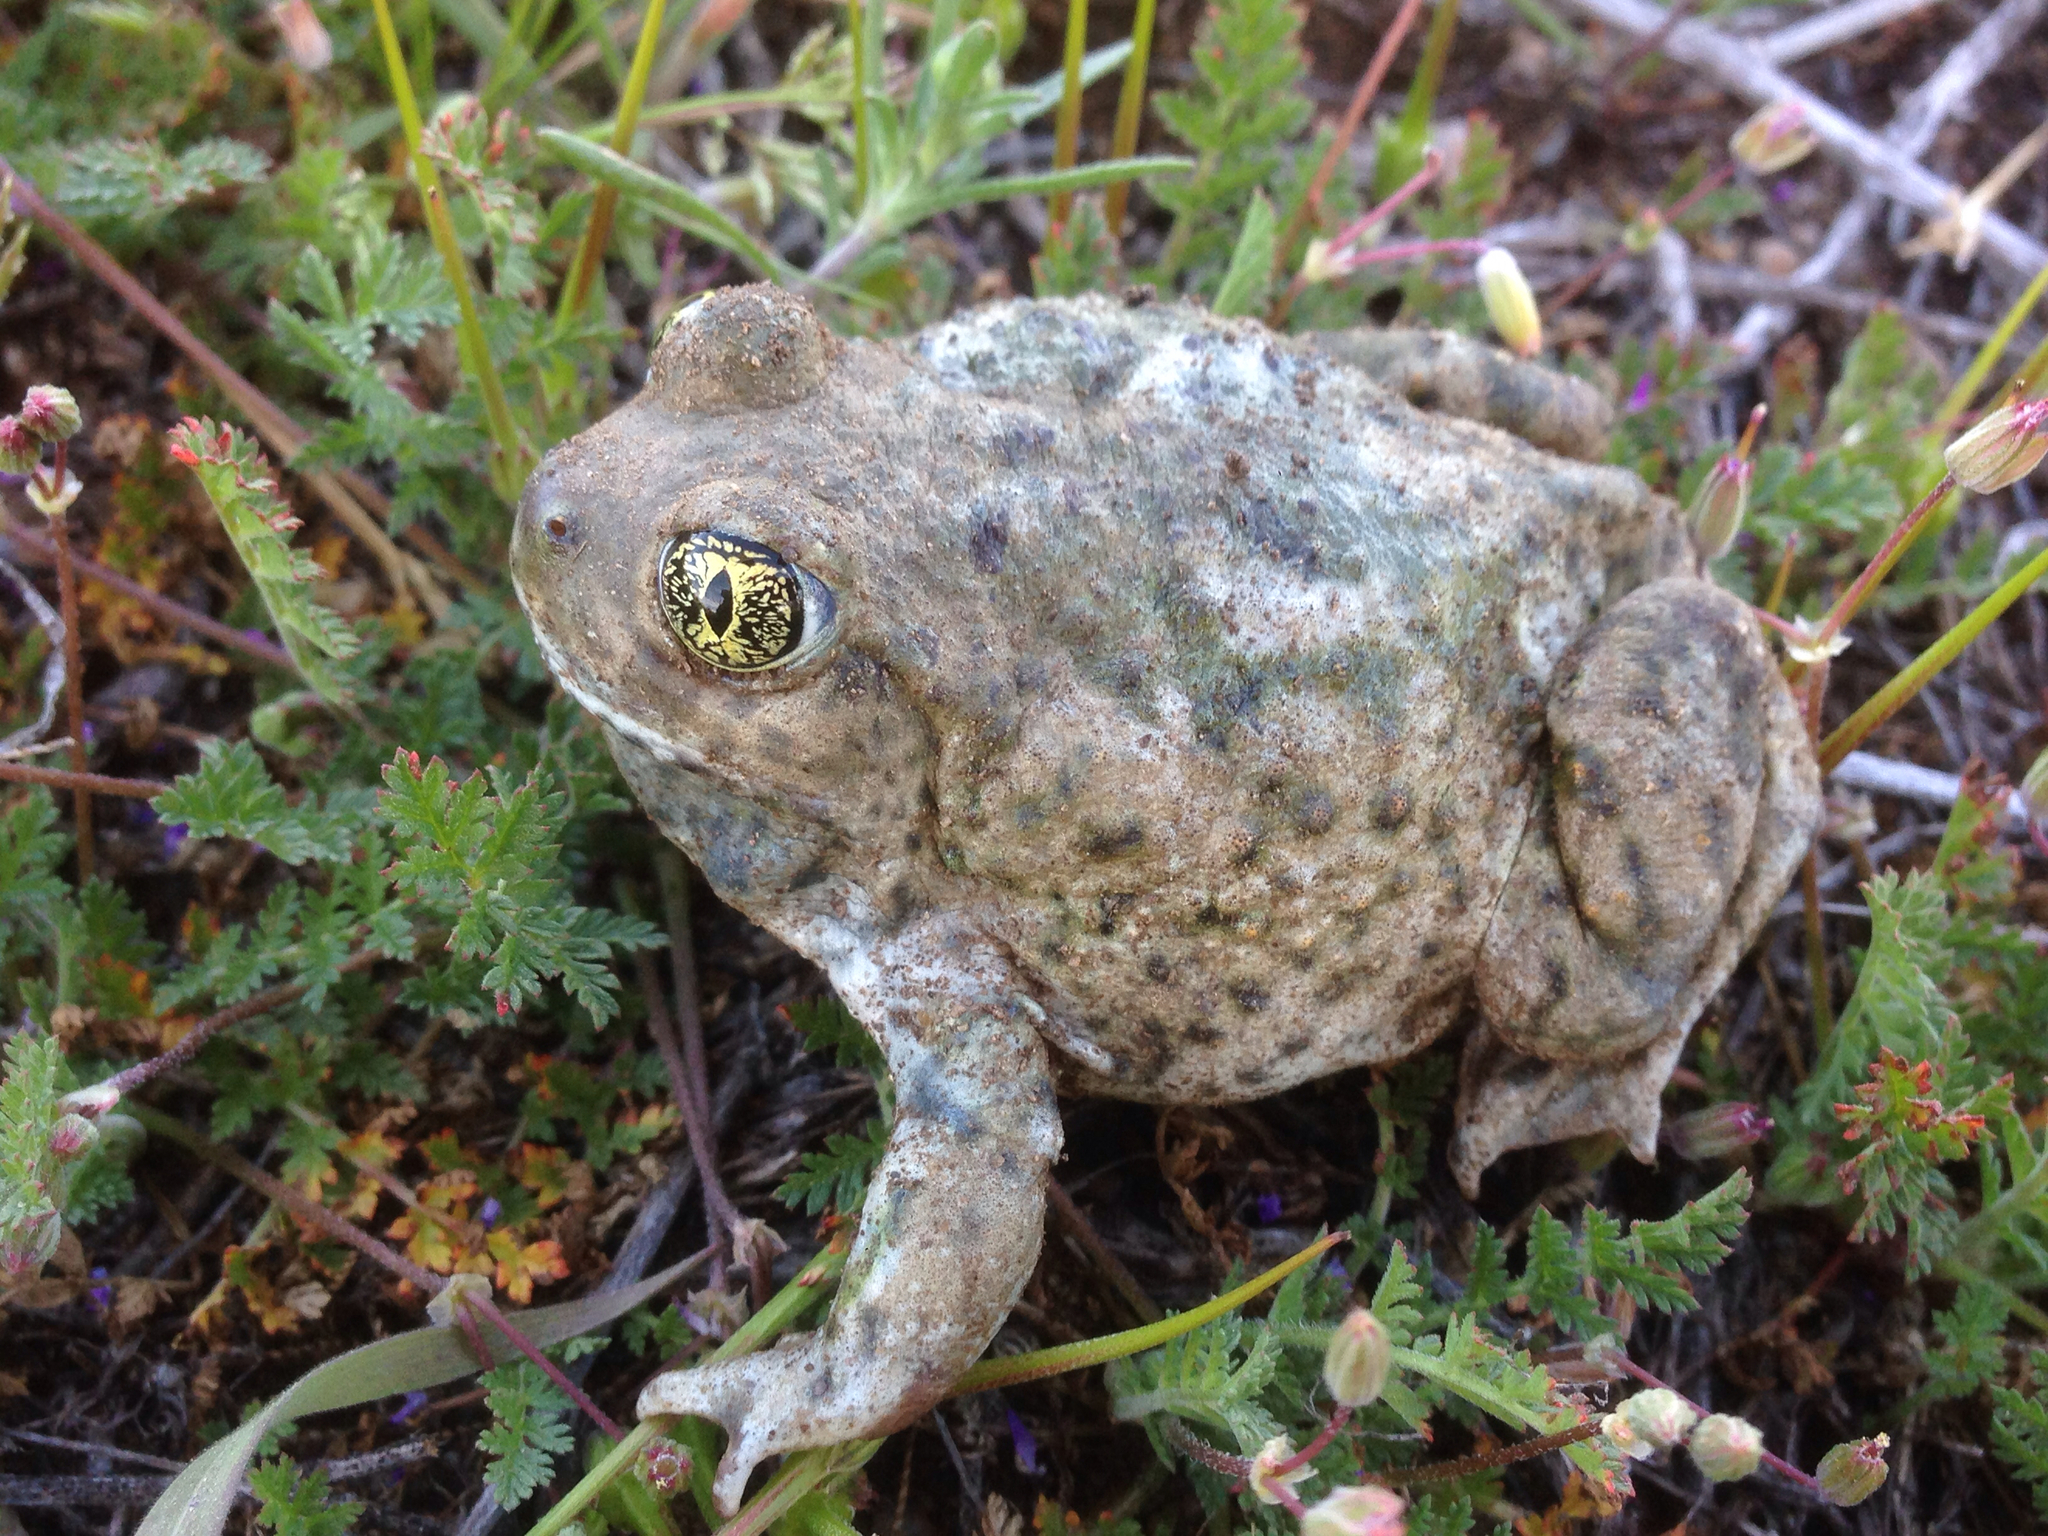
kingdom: Animalia
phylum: Chordata
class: Amphibia
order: Anura
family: Scaphiopodidae
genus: Spea
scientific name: Spea hammondii
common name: Western spadefoot toad
